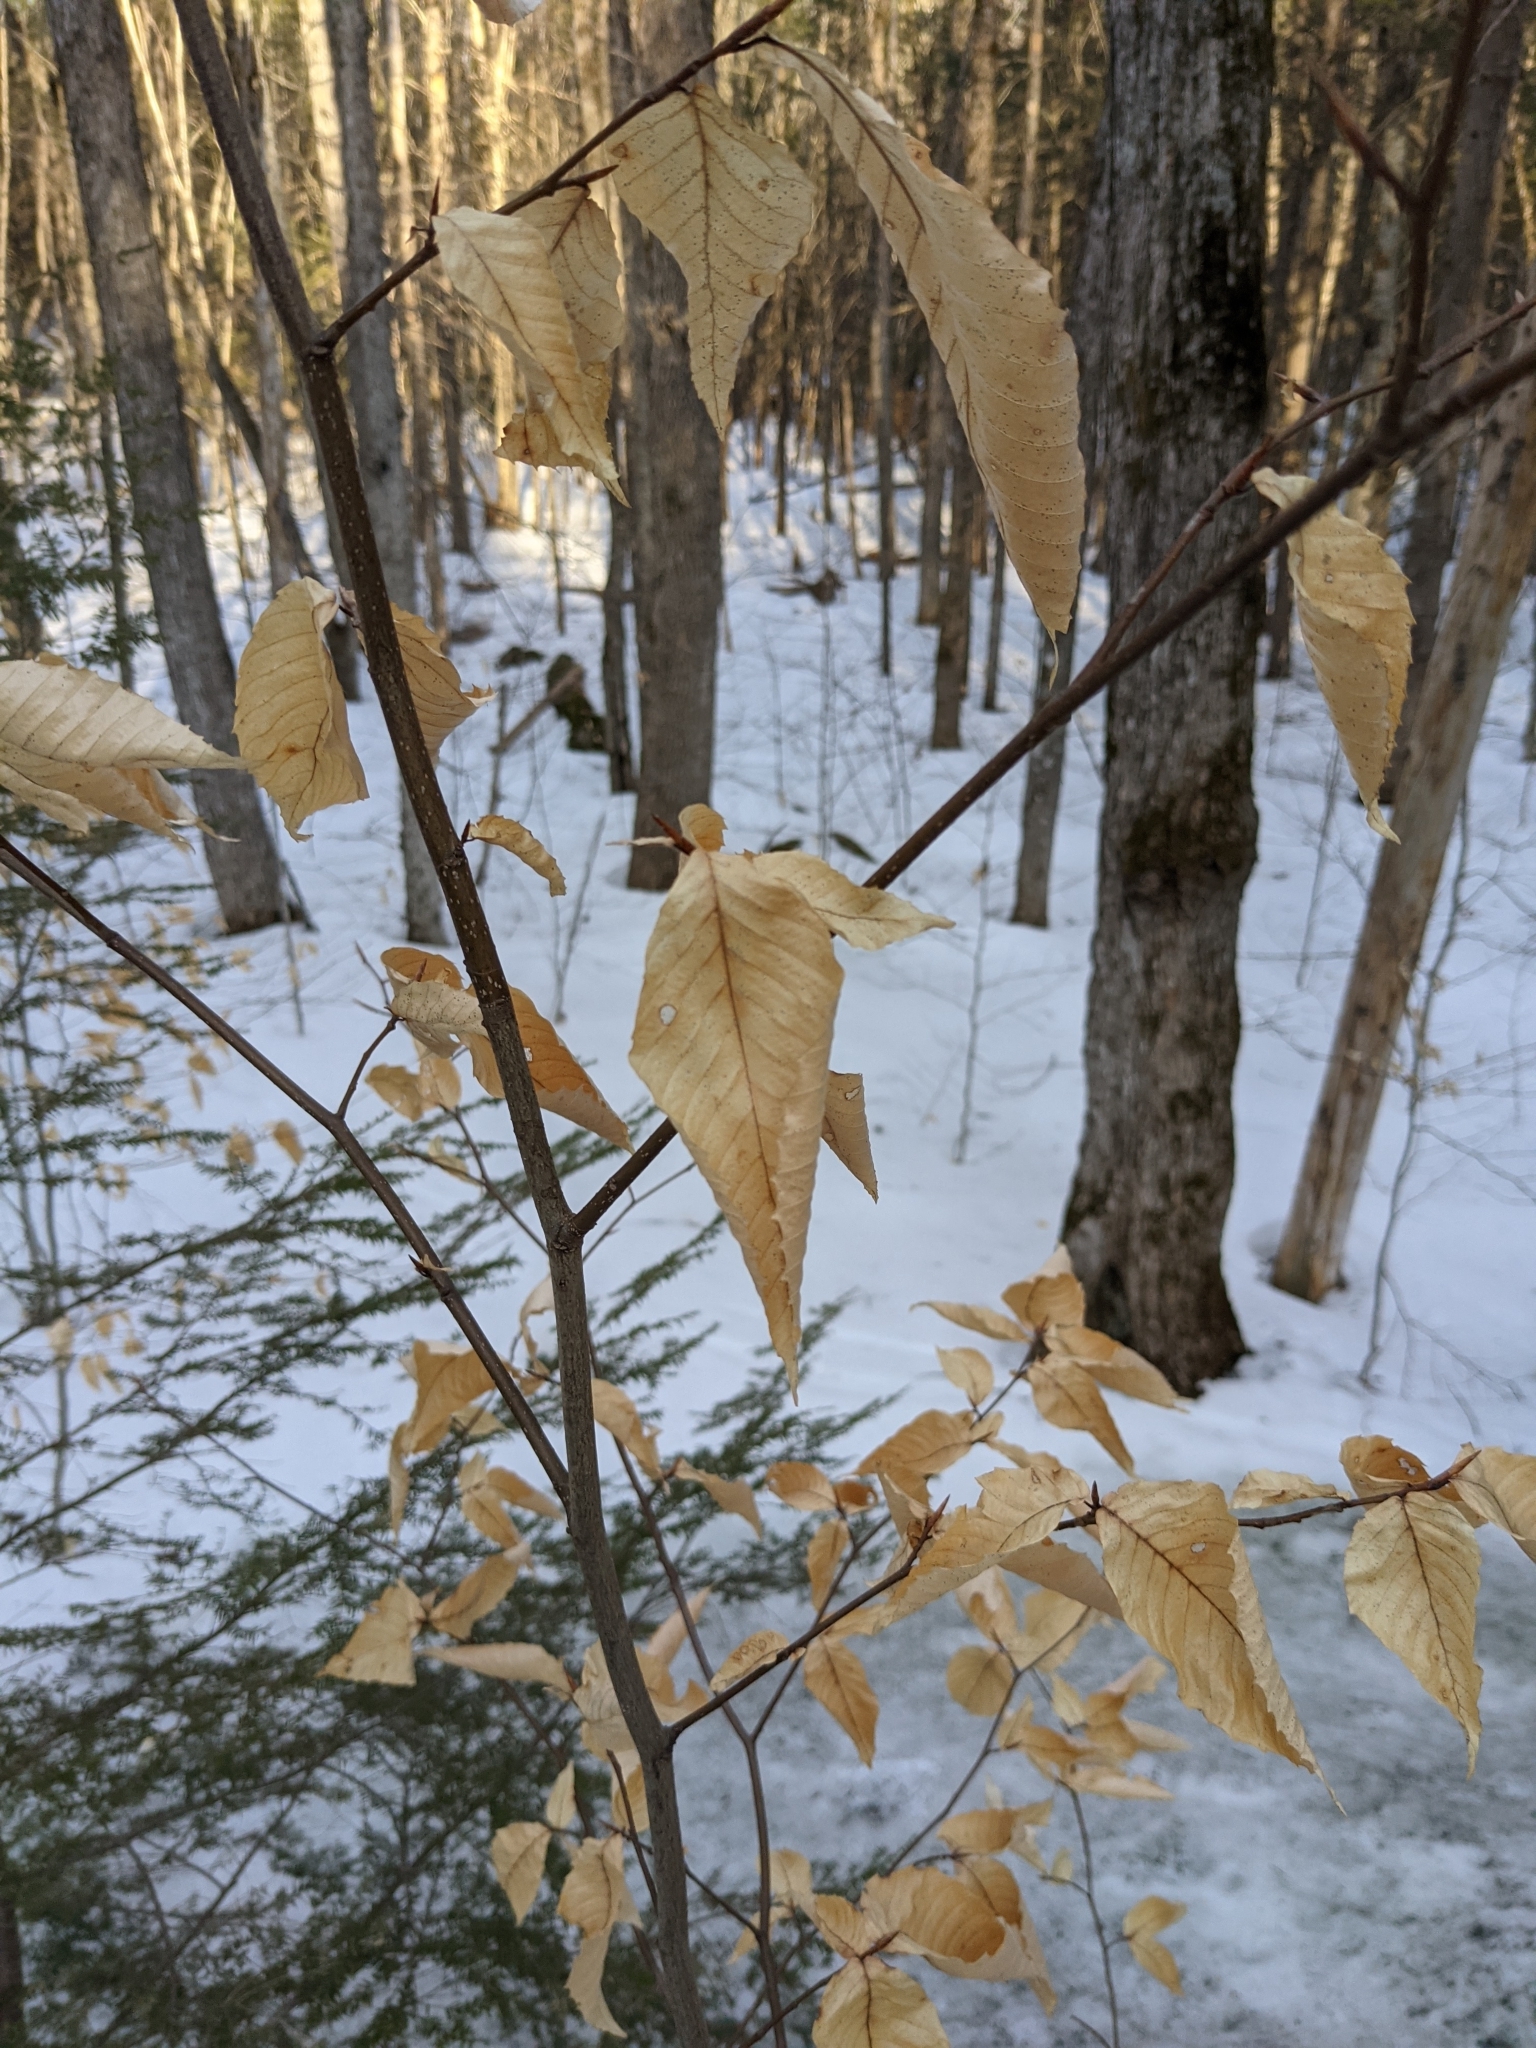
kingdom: Plantae
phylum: Tracheophyta
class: Magnoliopsida
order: Fagales
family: Fagaceae
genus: Fagus
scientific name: Fagus grandifolia
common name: American beech
